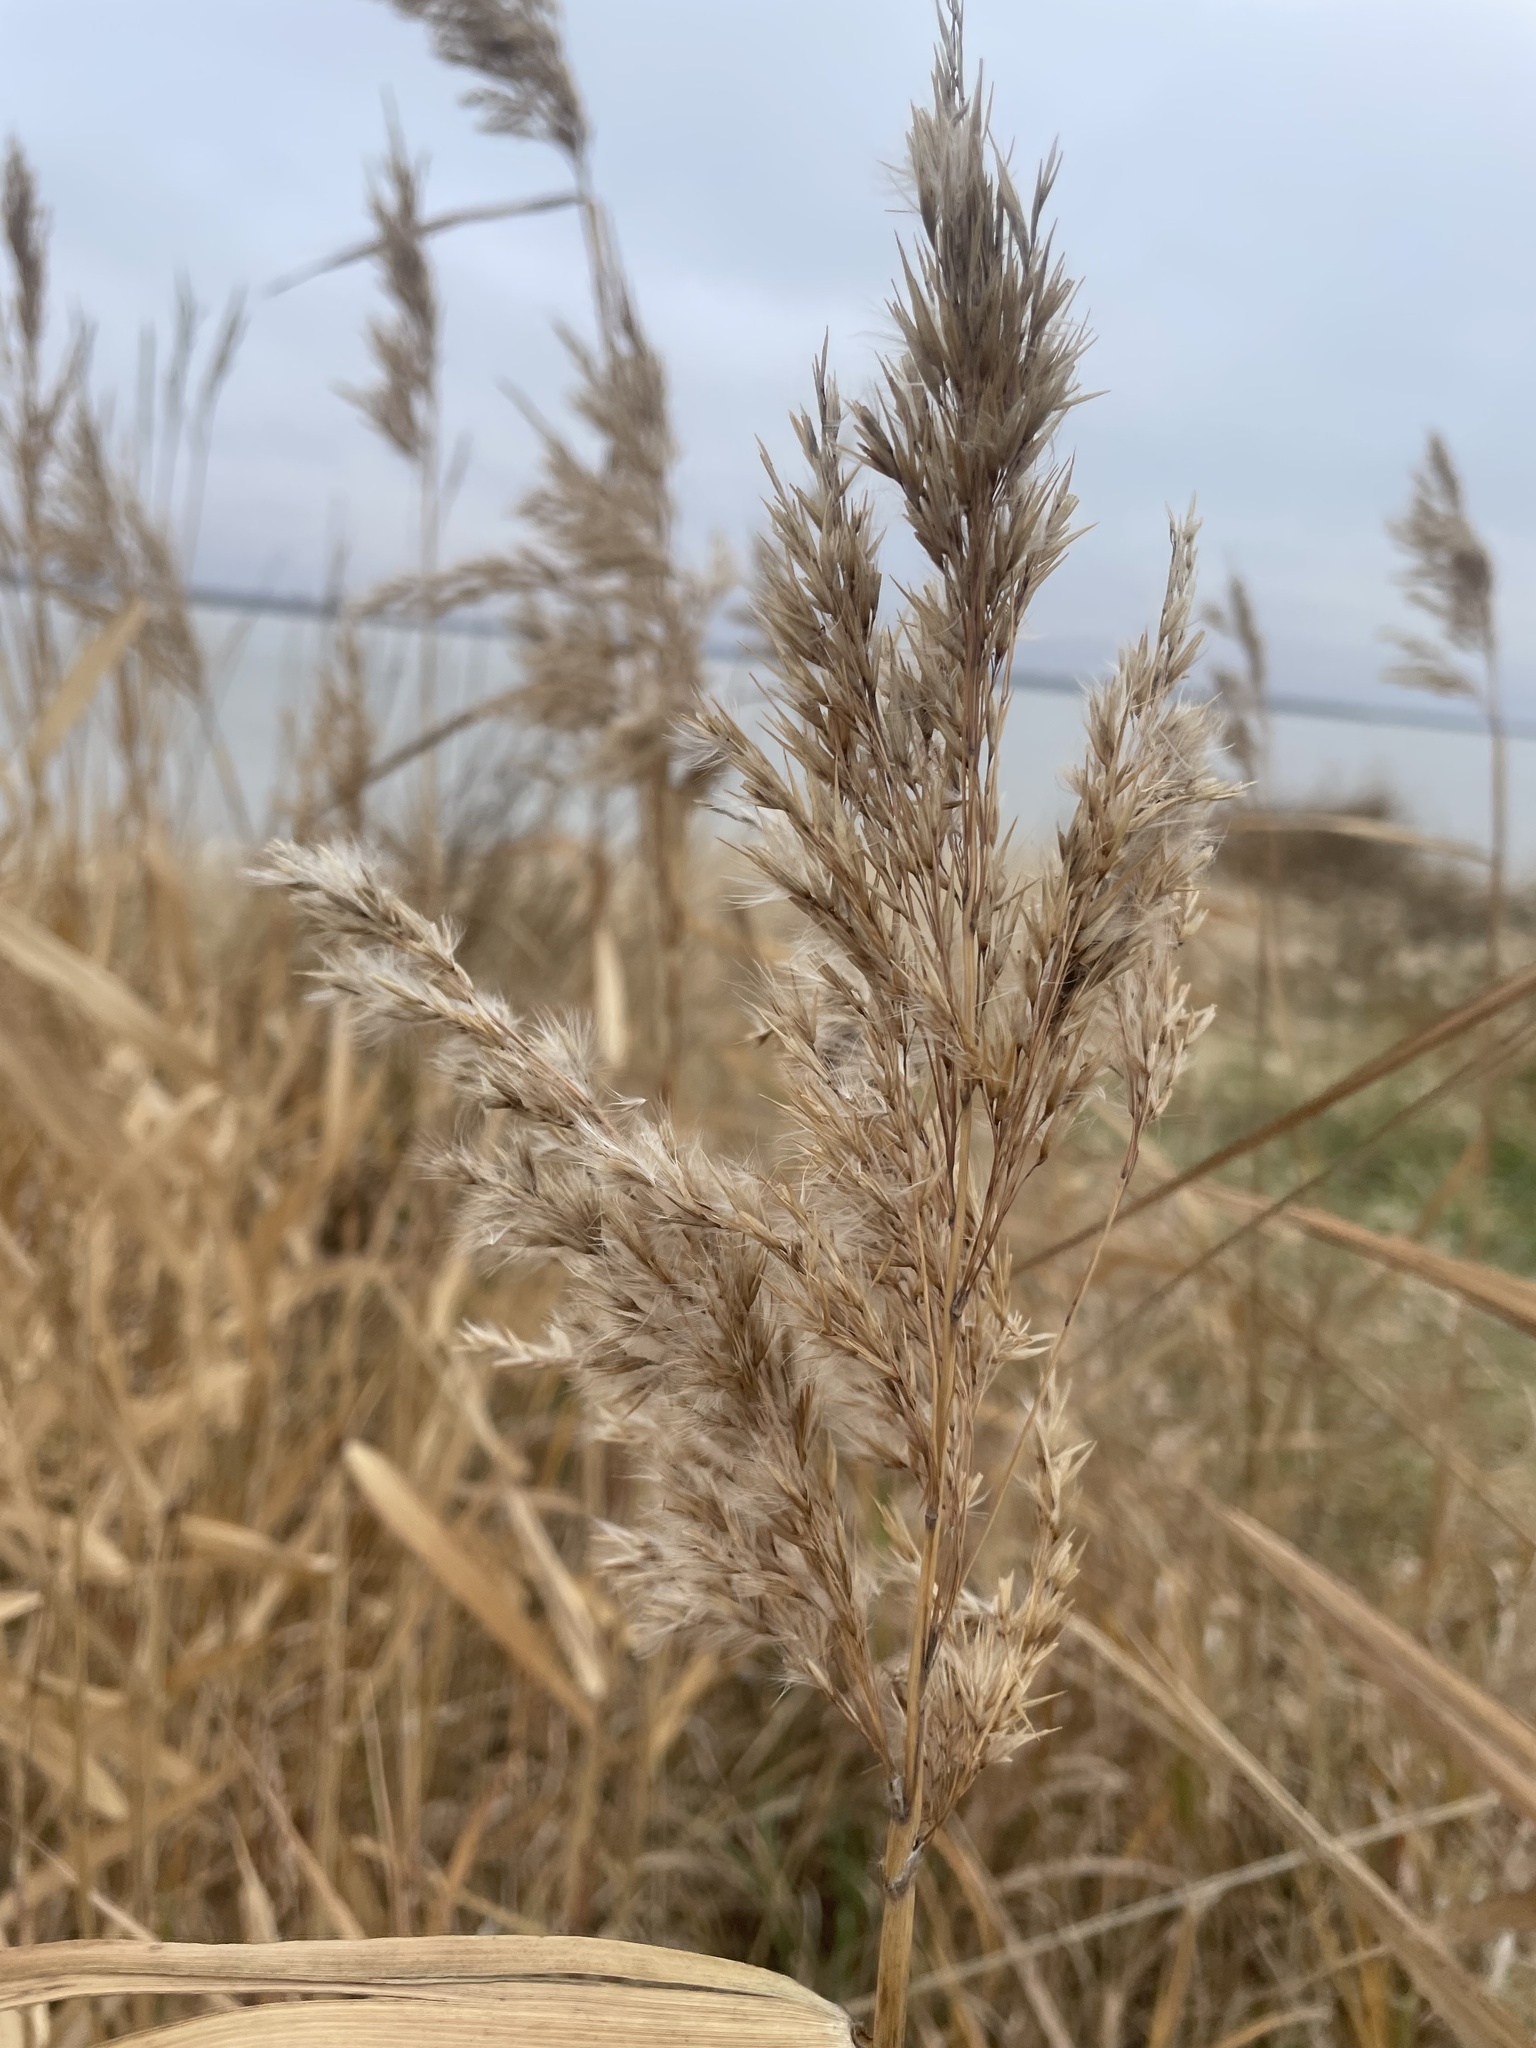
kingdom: Plantae
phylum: Tracheophyta
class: Liliopsida
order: Poales
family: Poaceae
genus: Phragmites
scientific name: Phragmites australis
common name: Common reed
